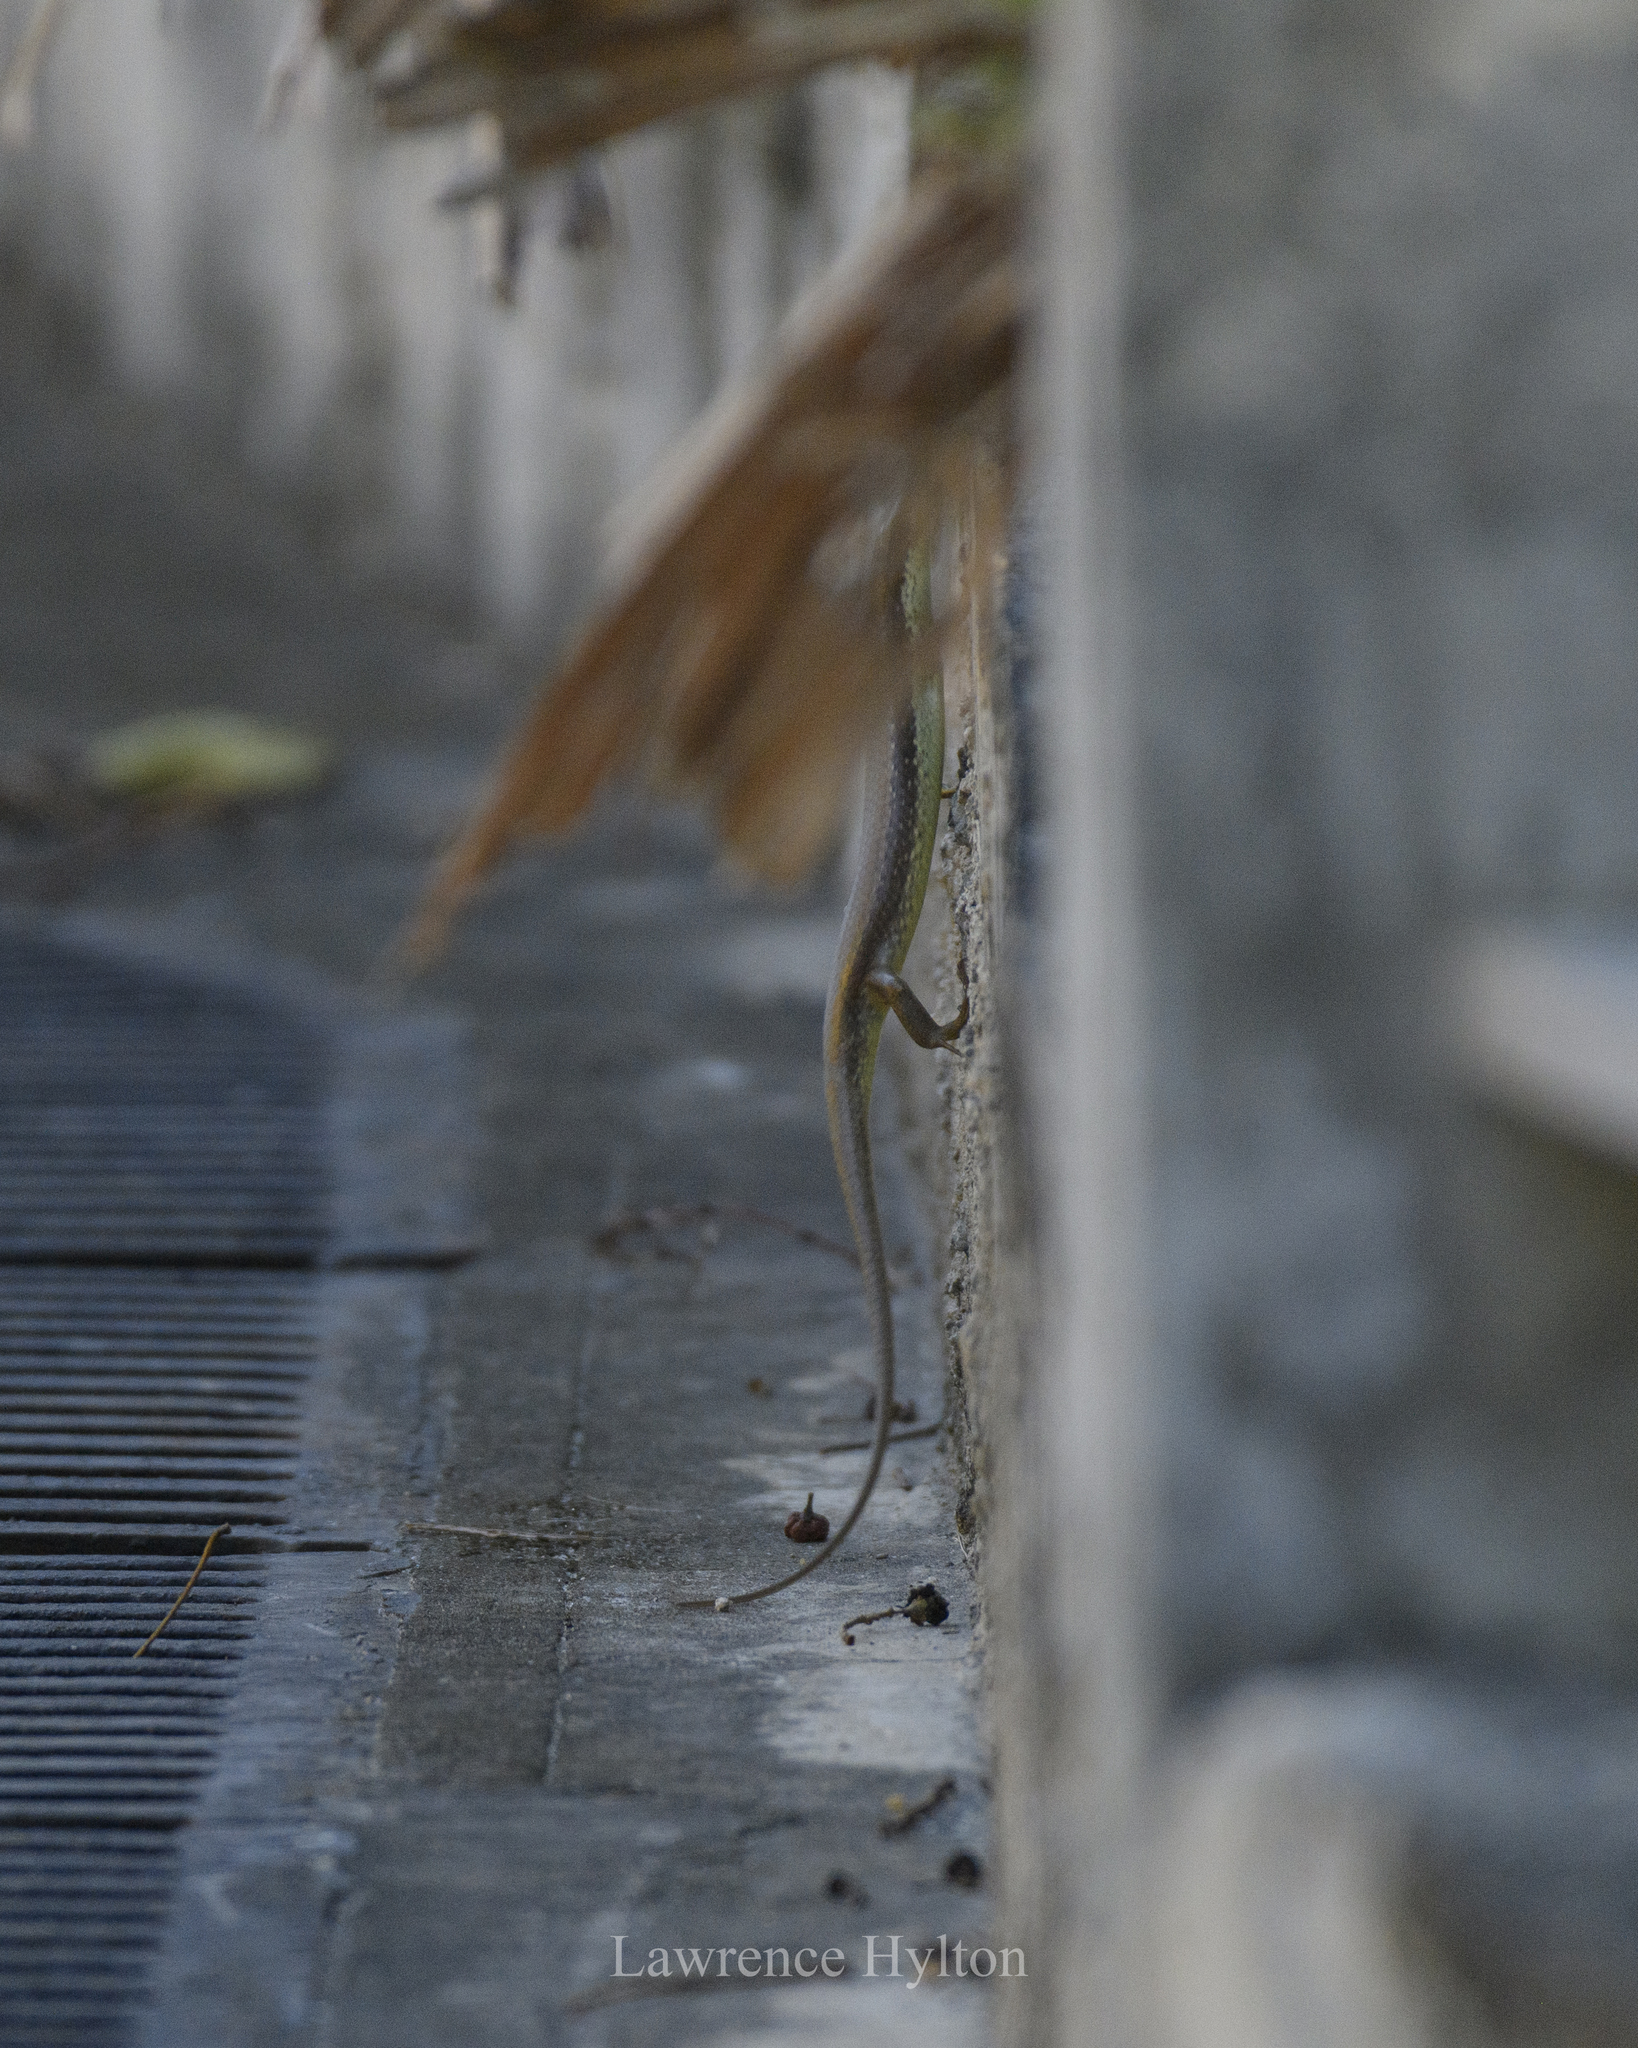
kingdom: Animalia
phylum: Chordata
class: Squamata
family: Scincidae
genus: Eutropis
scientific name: Eutropis longicaudata
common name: Long-tailed sun skink
